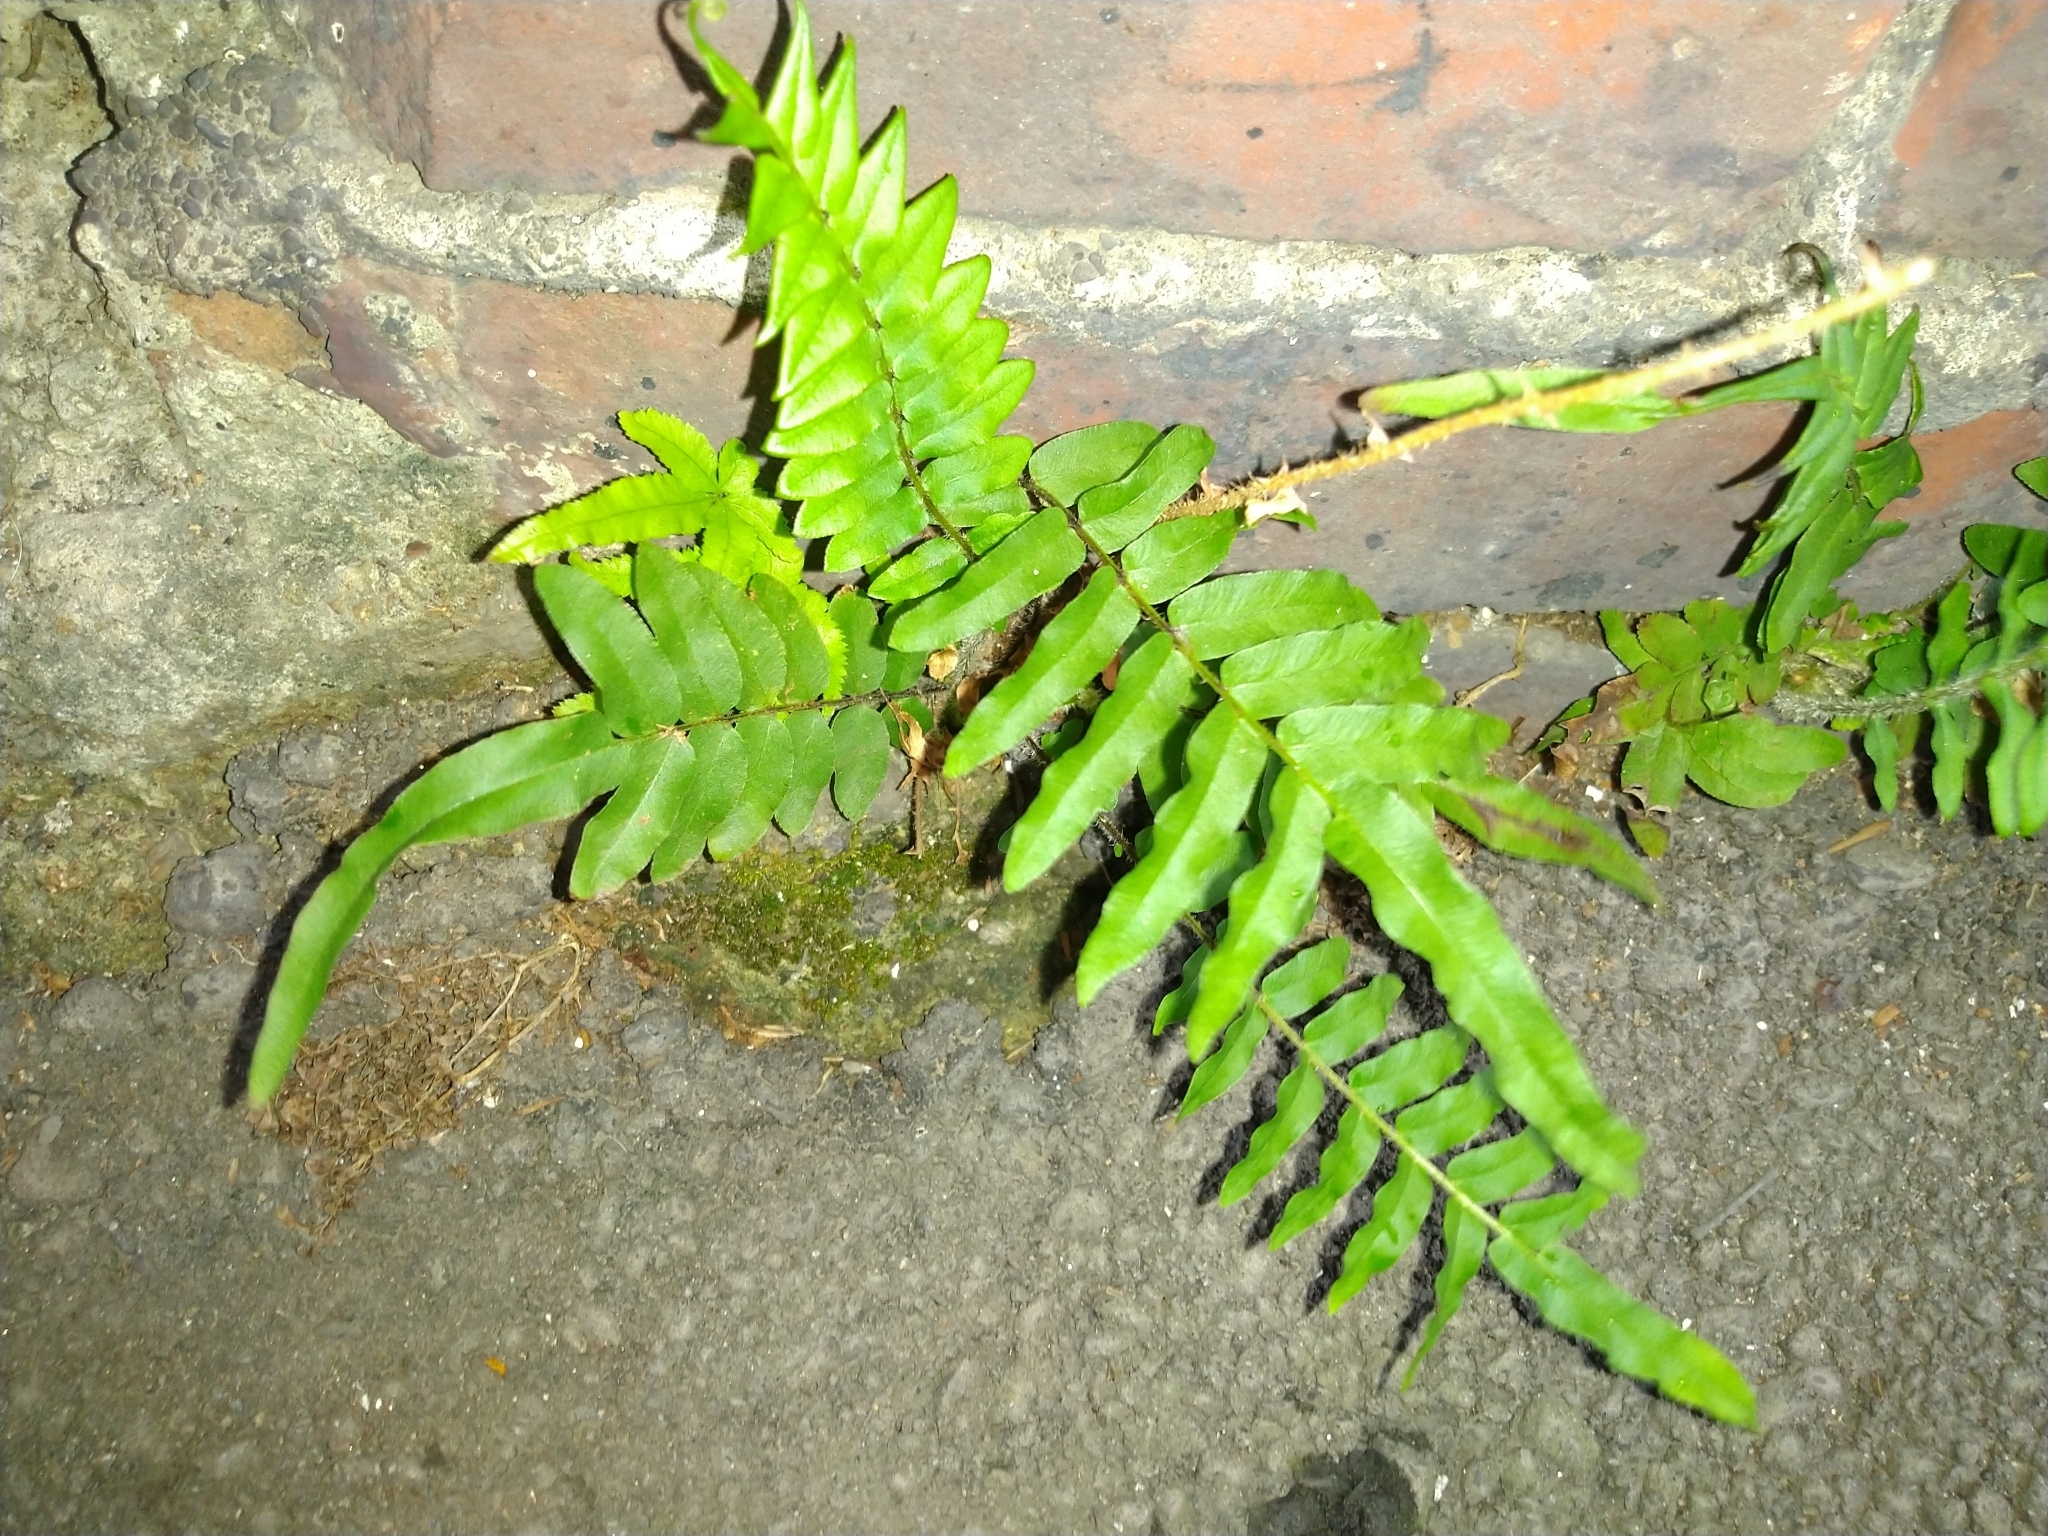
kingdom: Plantae
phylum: Tracheophyta
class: Polypodiopsida
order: Polypodiales
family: Pteridaceae
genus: Pteris
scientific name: Pteris vittata
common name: Ladder brake
